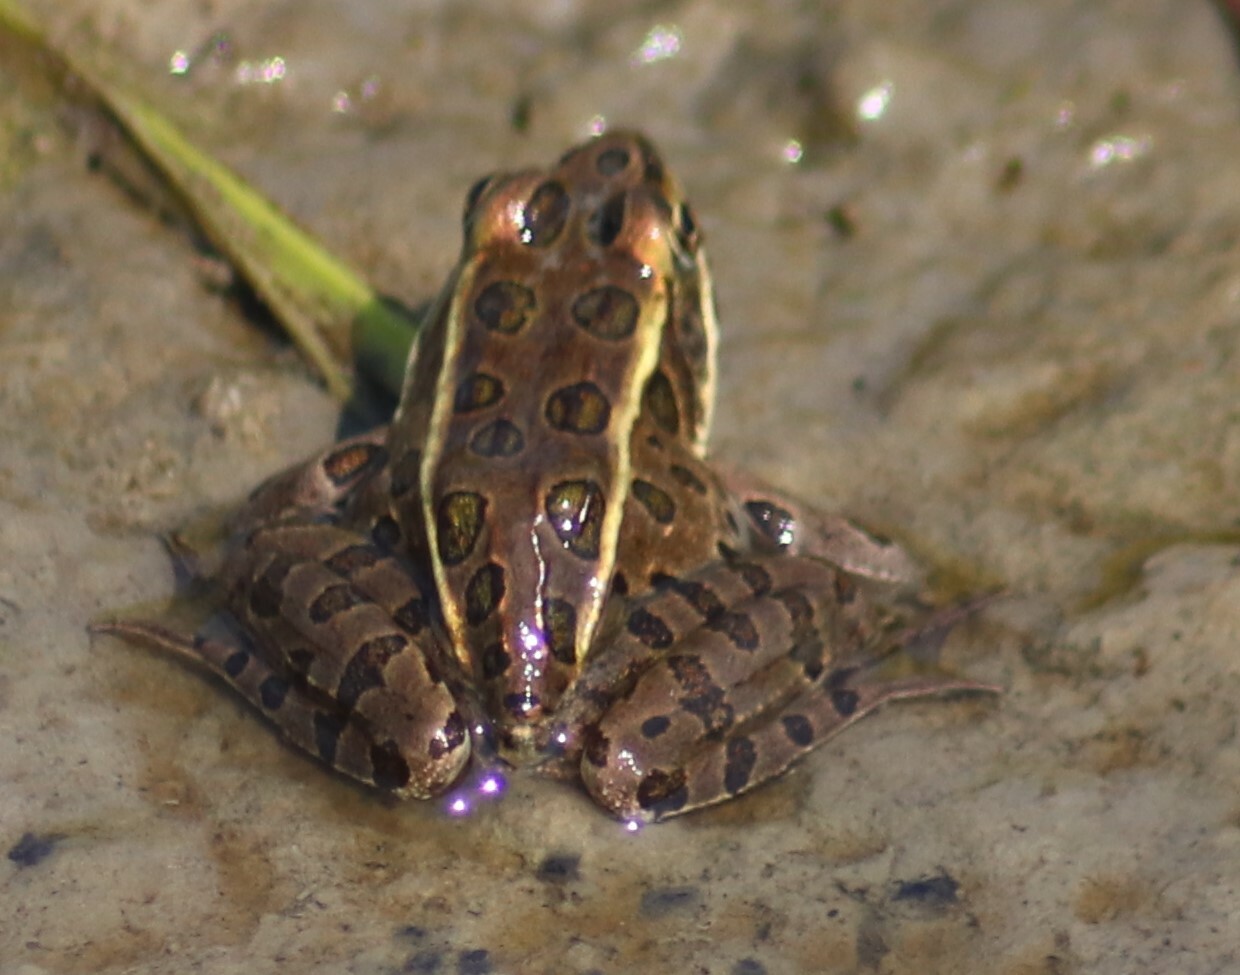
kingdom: Animalia
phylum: Chordata
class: Amphibia
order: Anura
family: Ranidae
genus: Lithobates
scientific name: Lithobates pipiens
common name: Northern leopard frog
